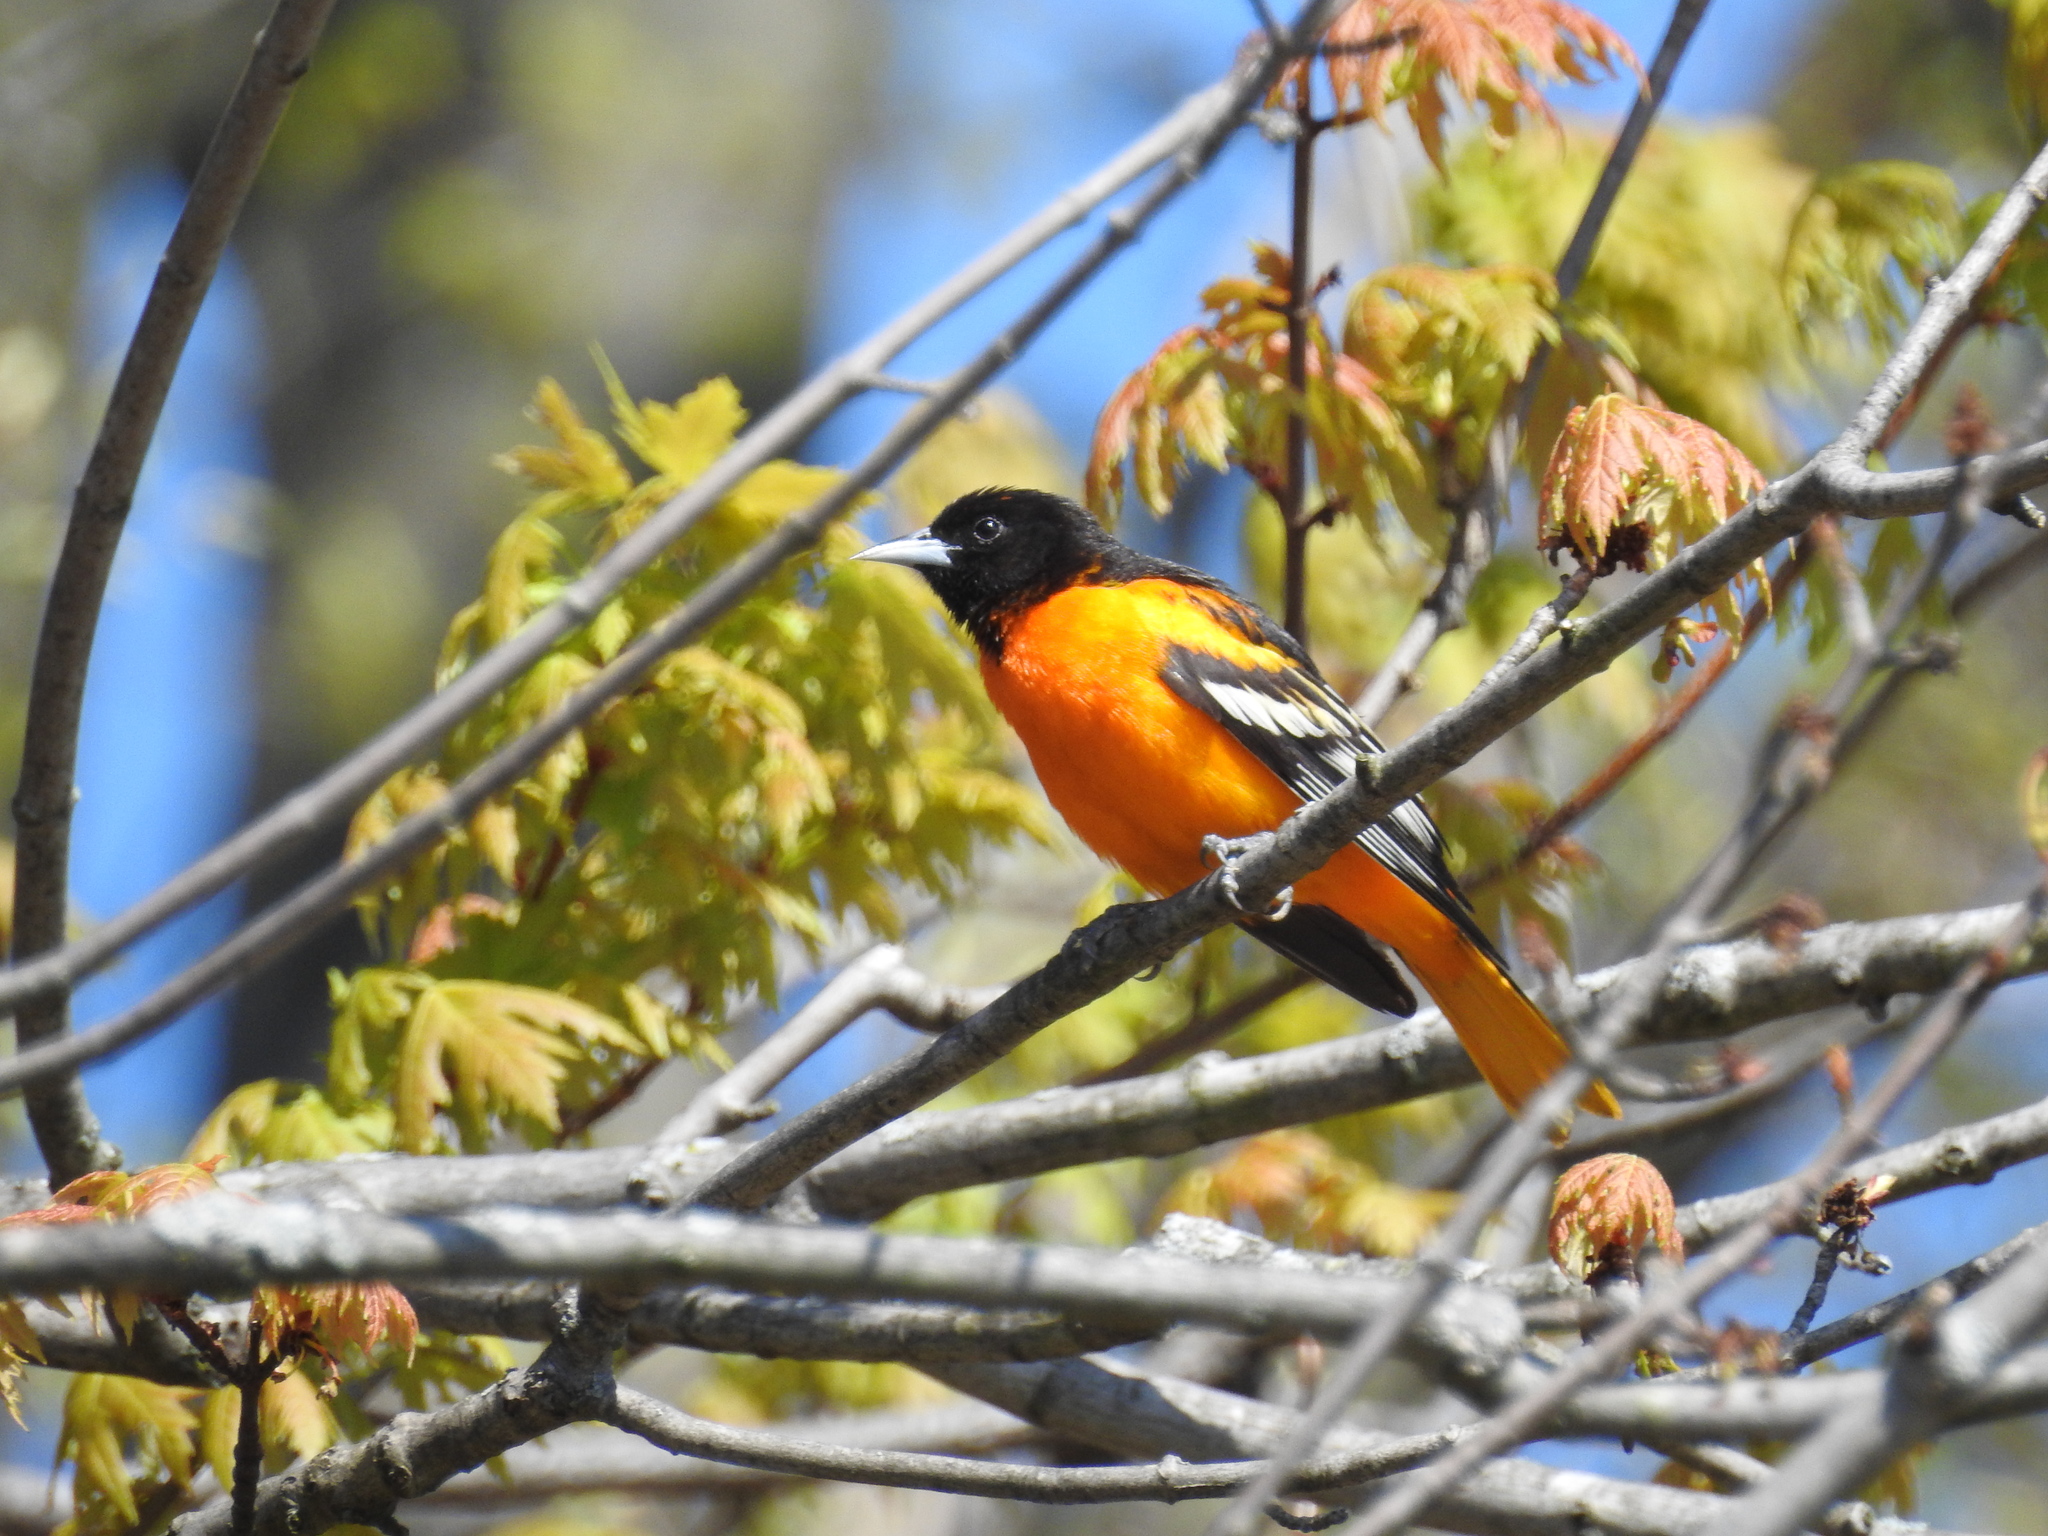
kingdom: Animalia
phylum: Chordata
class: Aves
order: Passeriformes
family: Icteridae
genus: Icterus
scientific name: Icterus galbula
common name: Baltimore oriole
